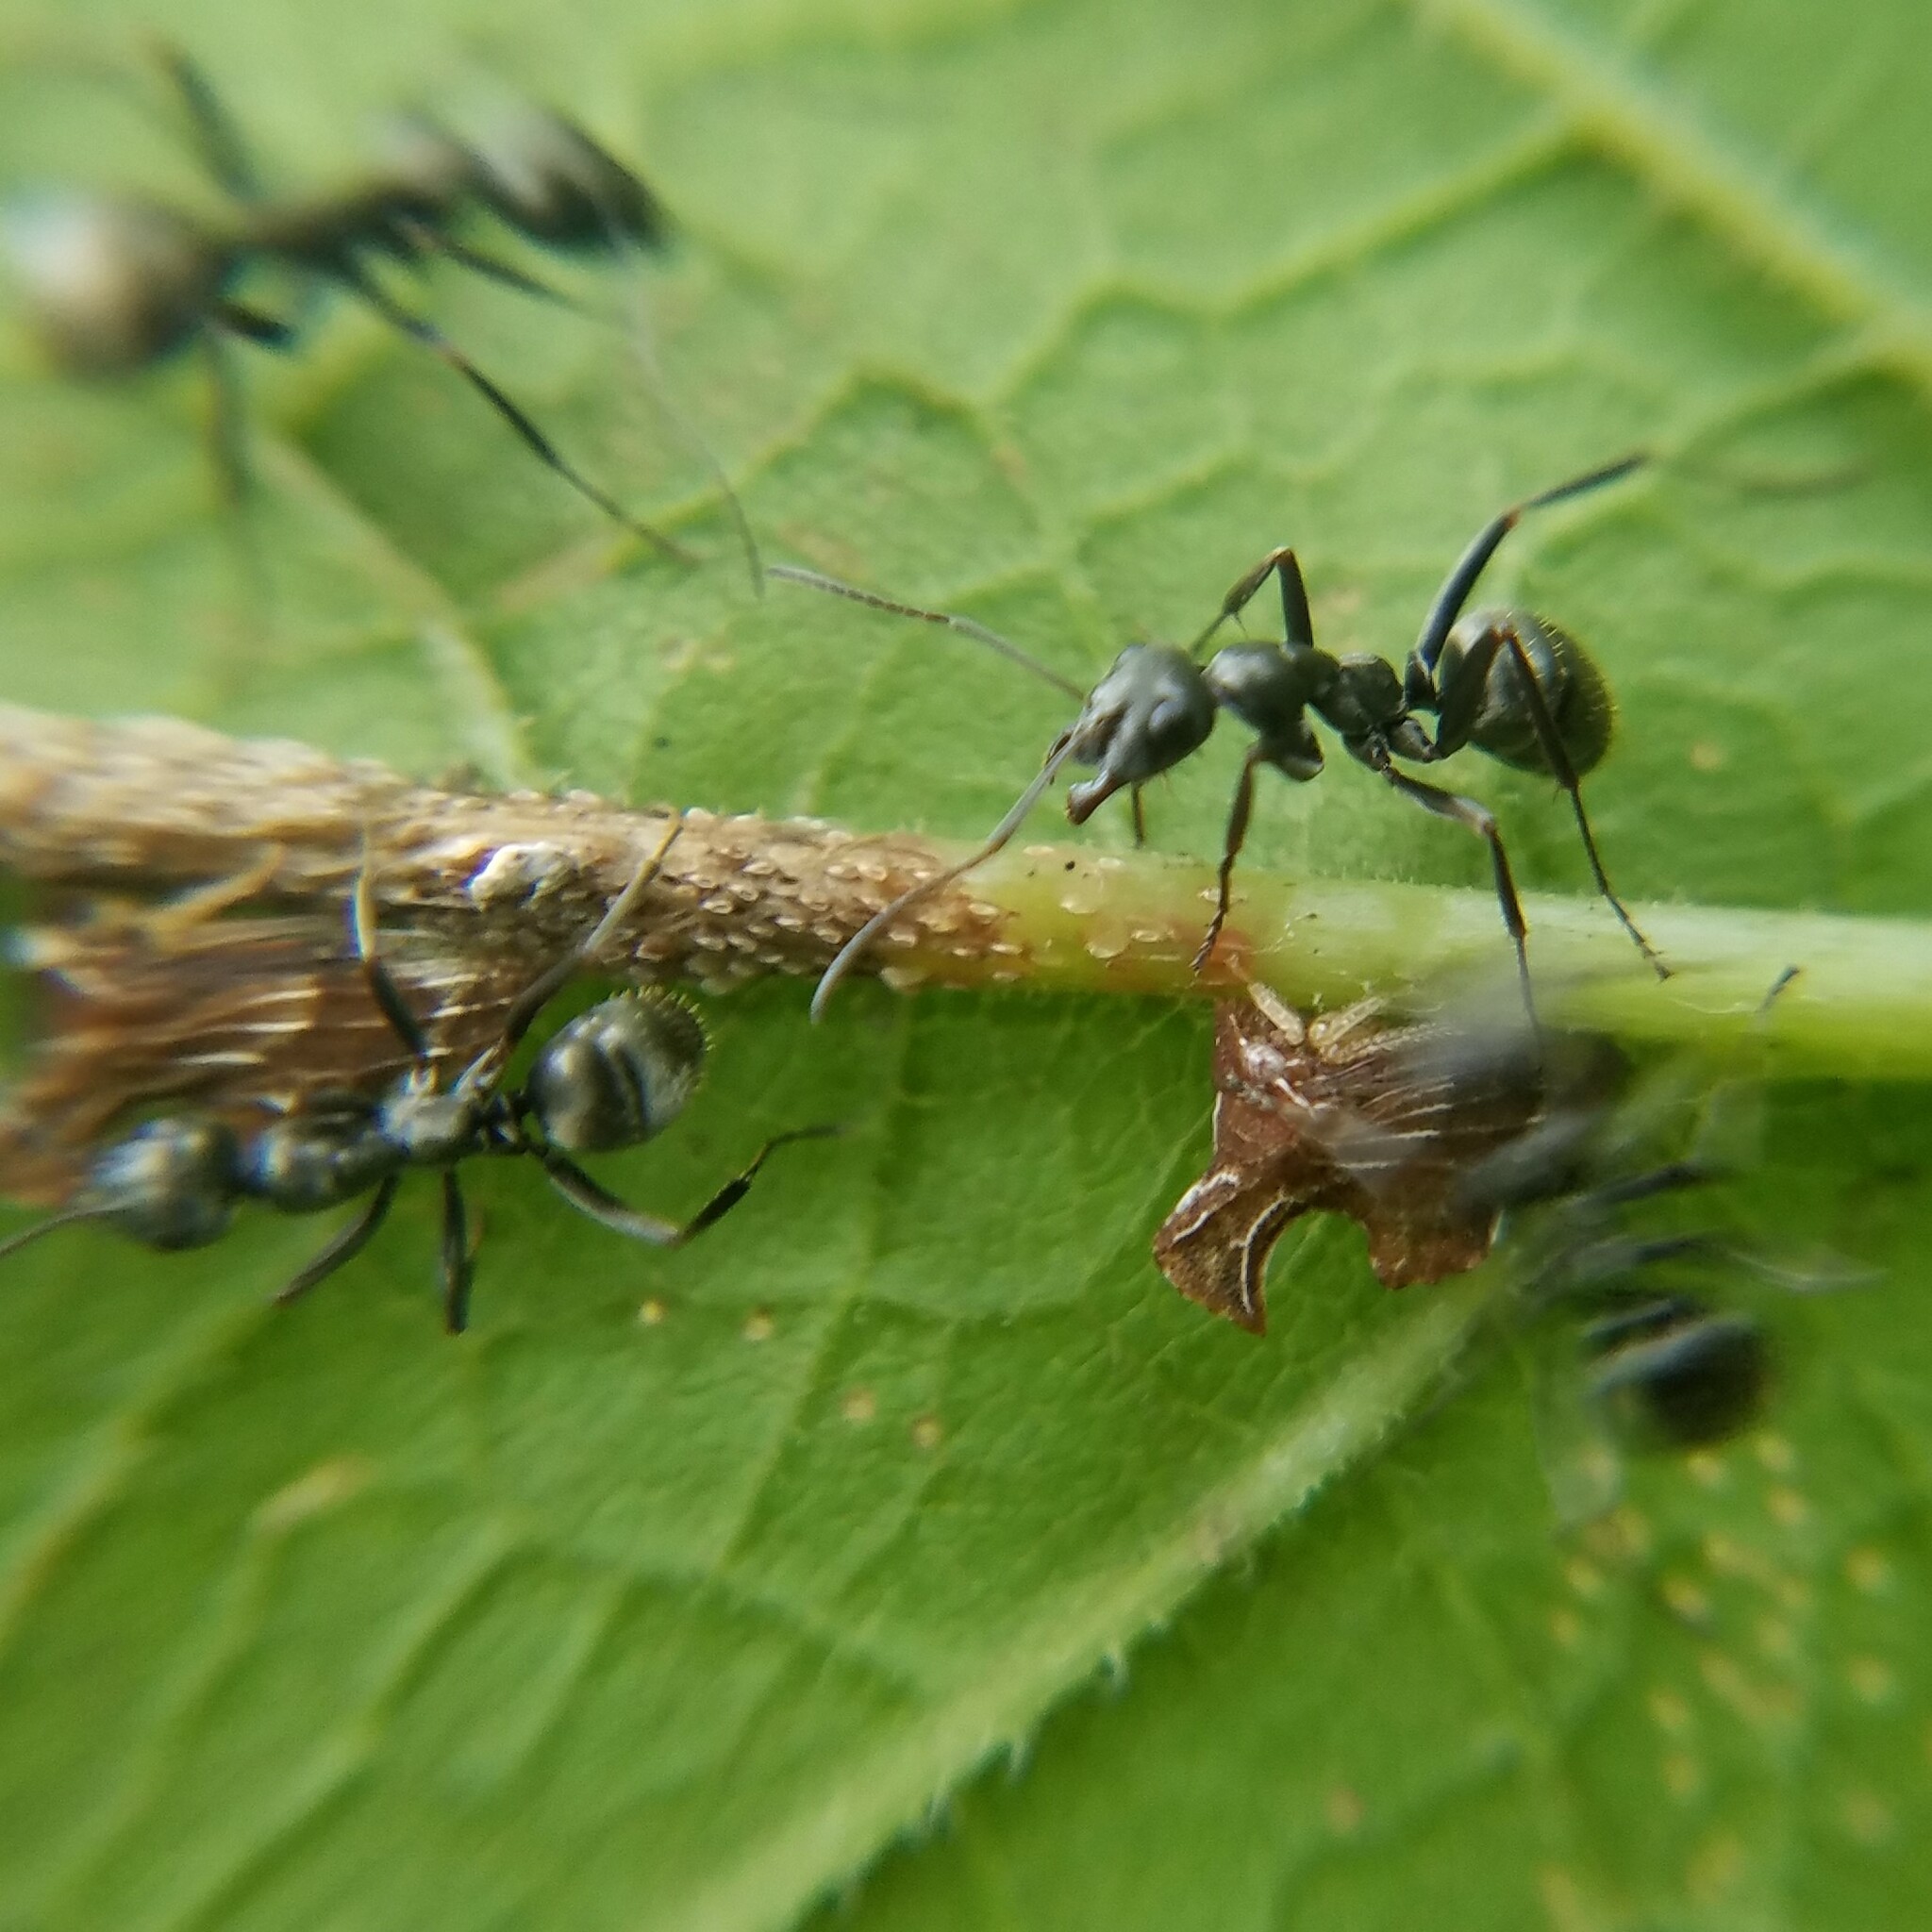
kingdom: Animalia
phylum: Arthropoda
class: Insecta
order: Hemiptera
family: Membracidae
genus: Entylia
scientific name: Entylia carinata
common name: Keeled treehopper
